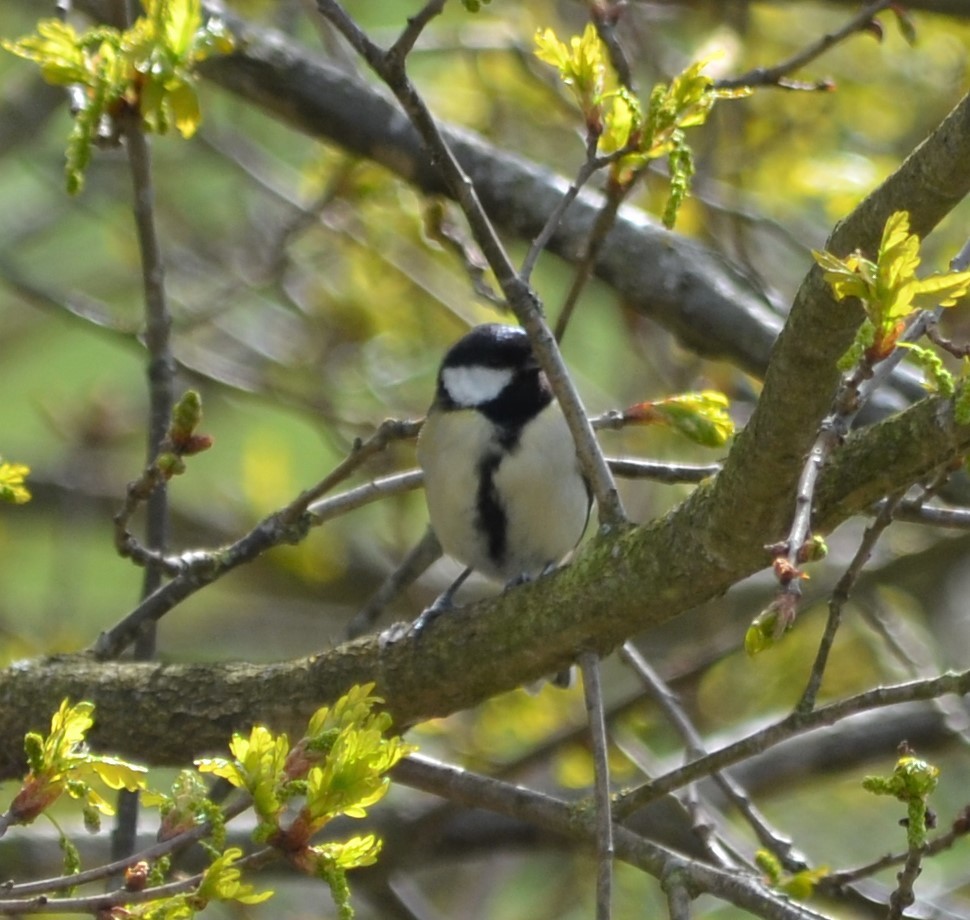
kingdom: Animalia
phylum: Chordata
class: Aves
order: Passeriformes
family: Paridae
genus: Parus
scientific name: Parus major
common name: Great tit
